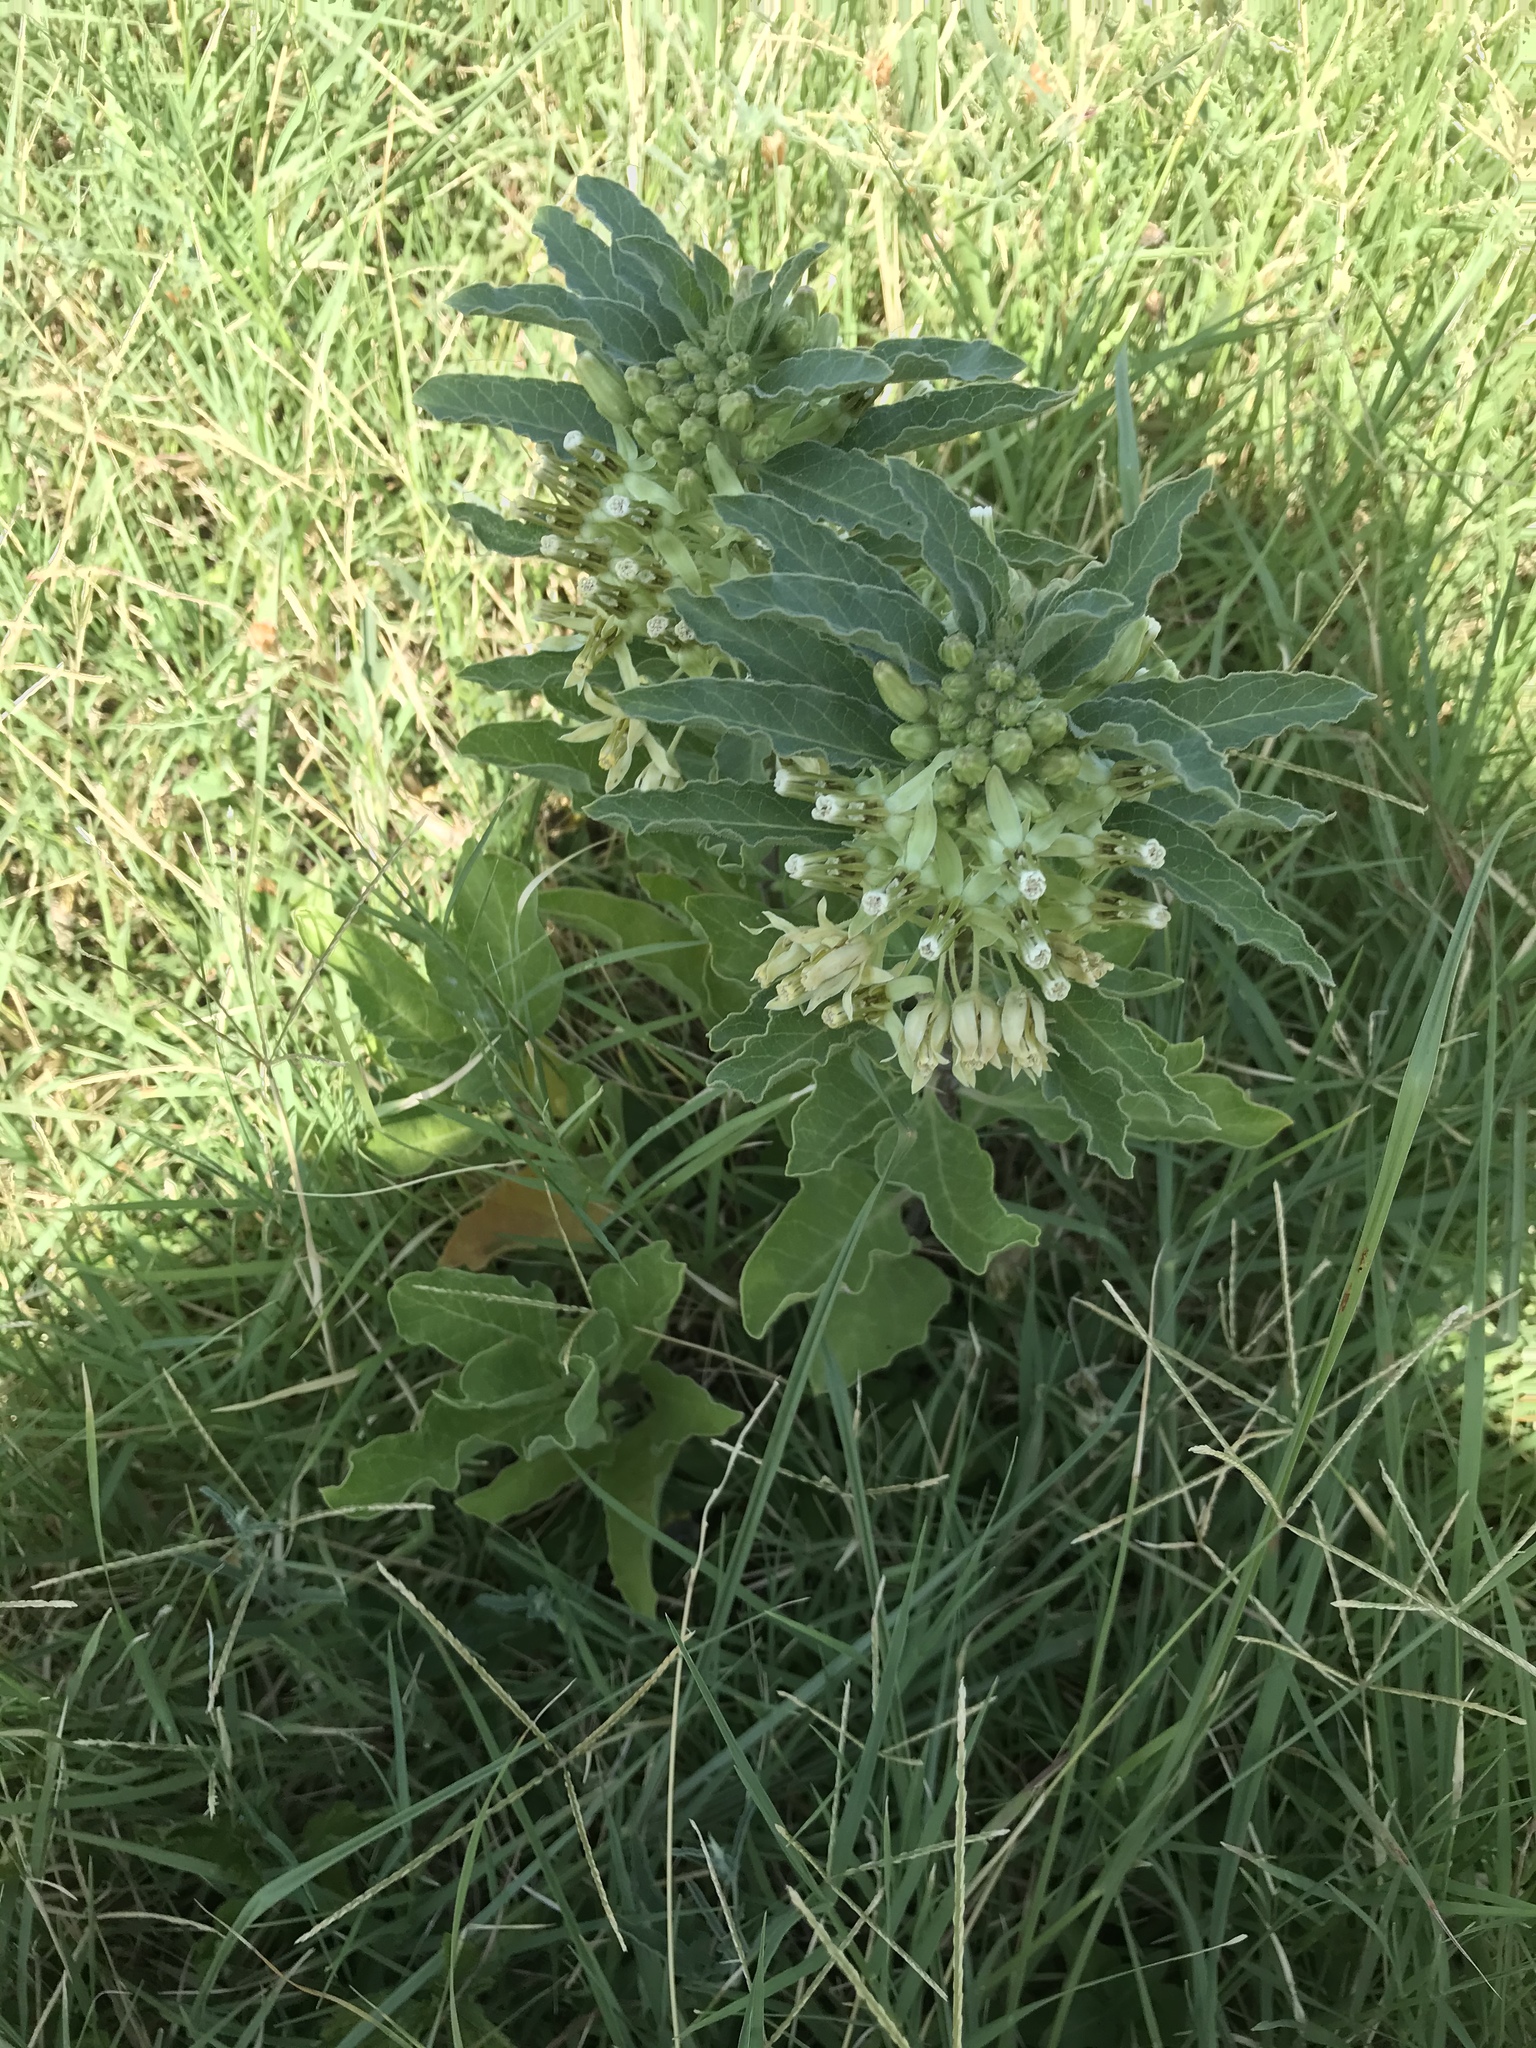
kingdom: Plantae
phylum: Tracheophyta
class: Magnoliopsida
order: Gentianales
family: Apocynaceae
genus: Asclepias
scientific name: Asclepias oenotheroides
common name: Zizotes milkweed
